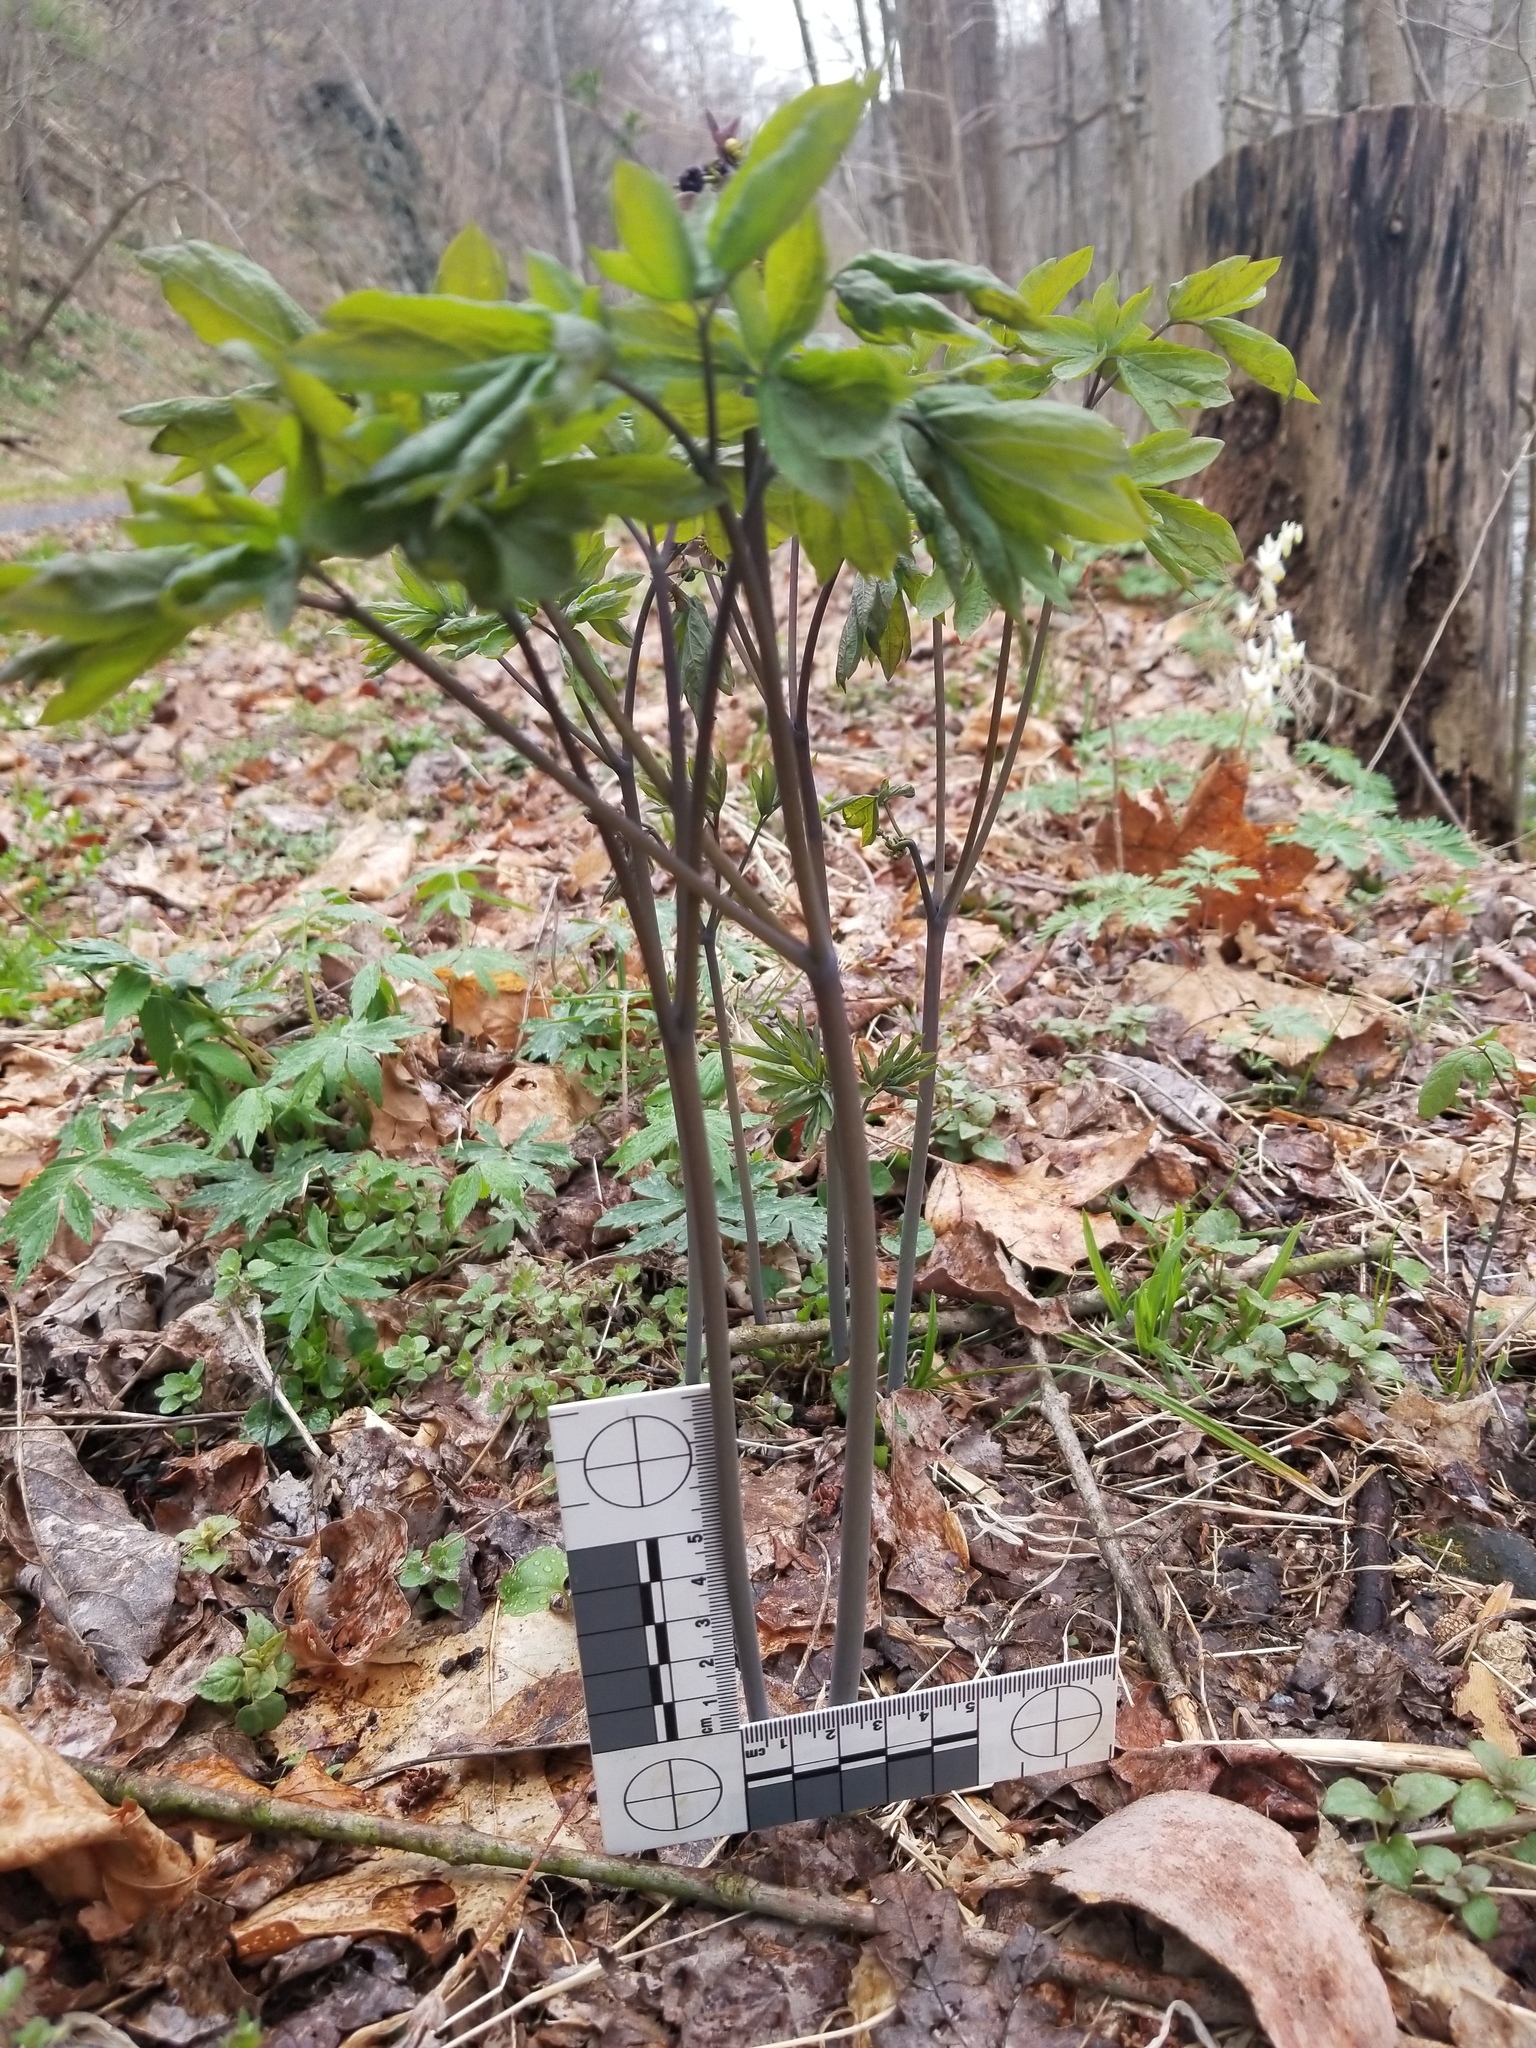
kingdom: Plantae
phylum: Tracheophyta
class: Magnoliopsida
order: Ranunculales
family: Berberidaceae
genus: Caulophyllum
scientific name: Caulophyllum giganteum
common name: Blue cohosh
